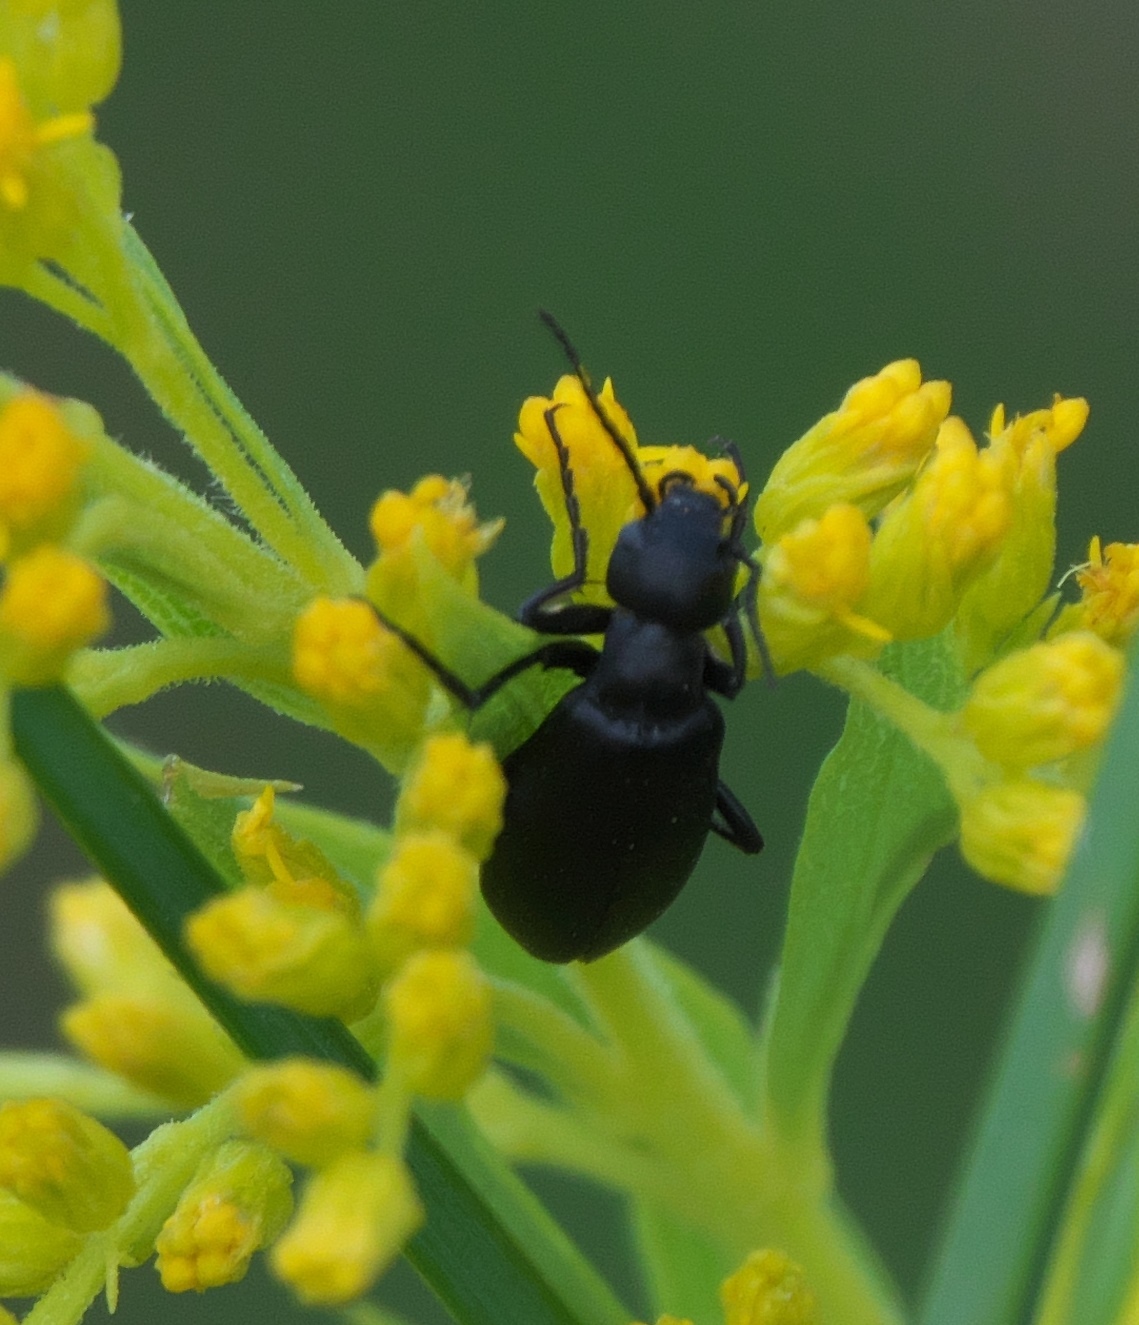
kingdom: Animalia
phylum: Arthropoda
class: Insecta
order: Coleoptera
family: Meloidae
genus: Epicauta
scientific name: Epicauta pensylvanica
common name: Black blister beetle
